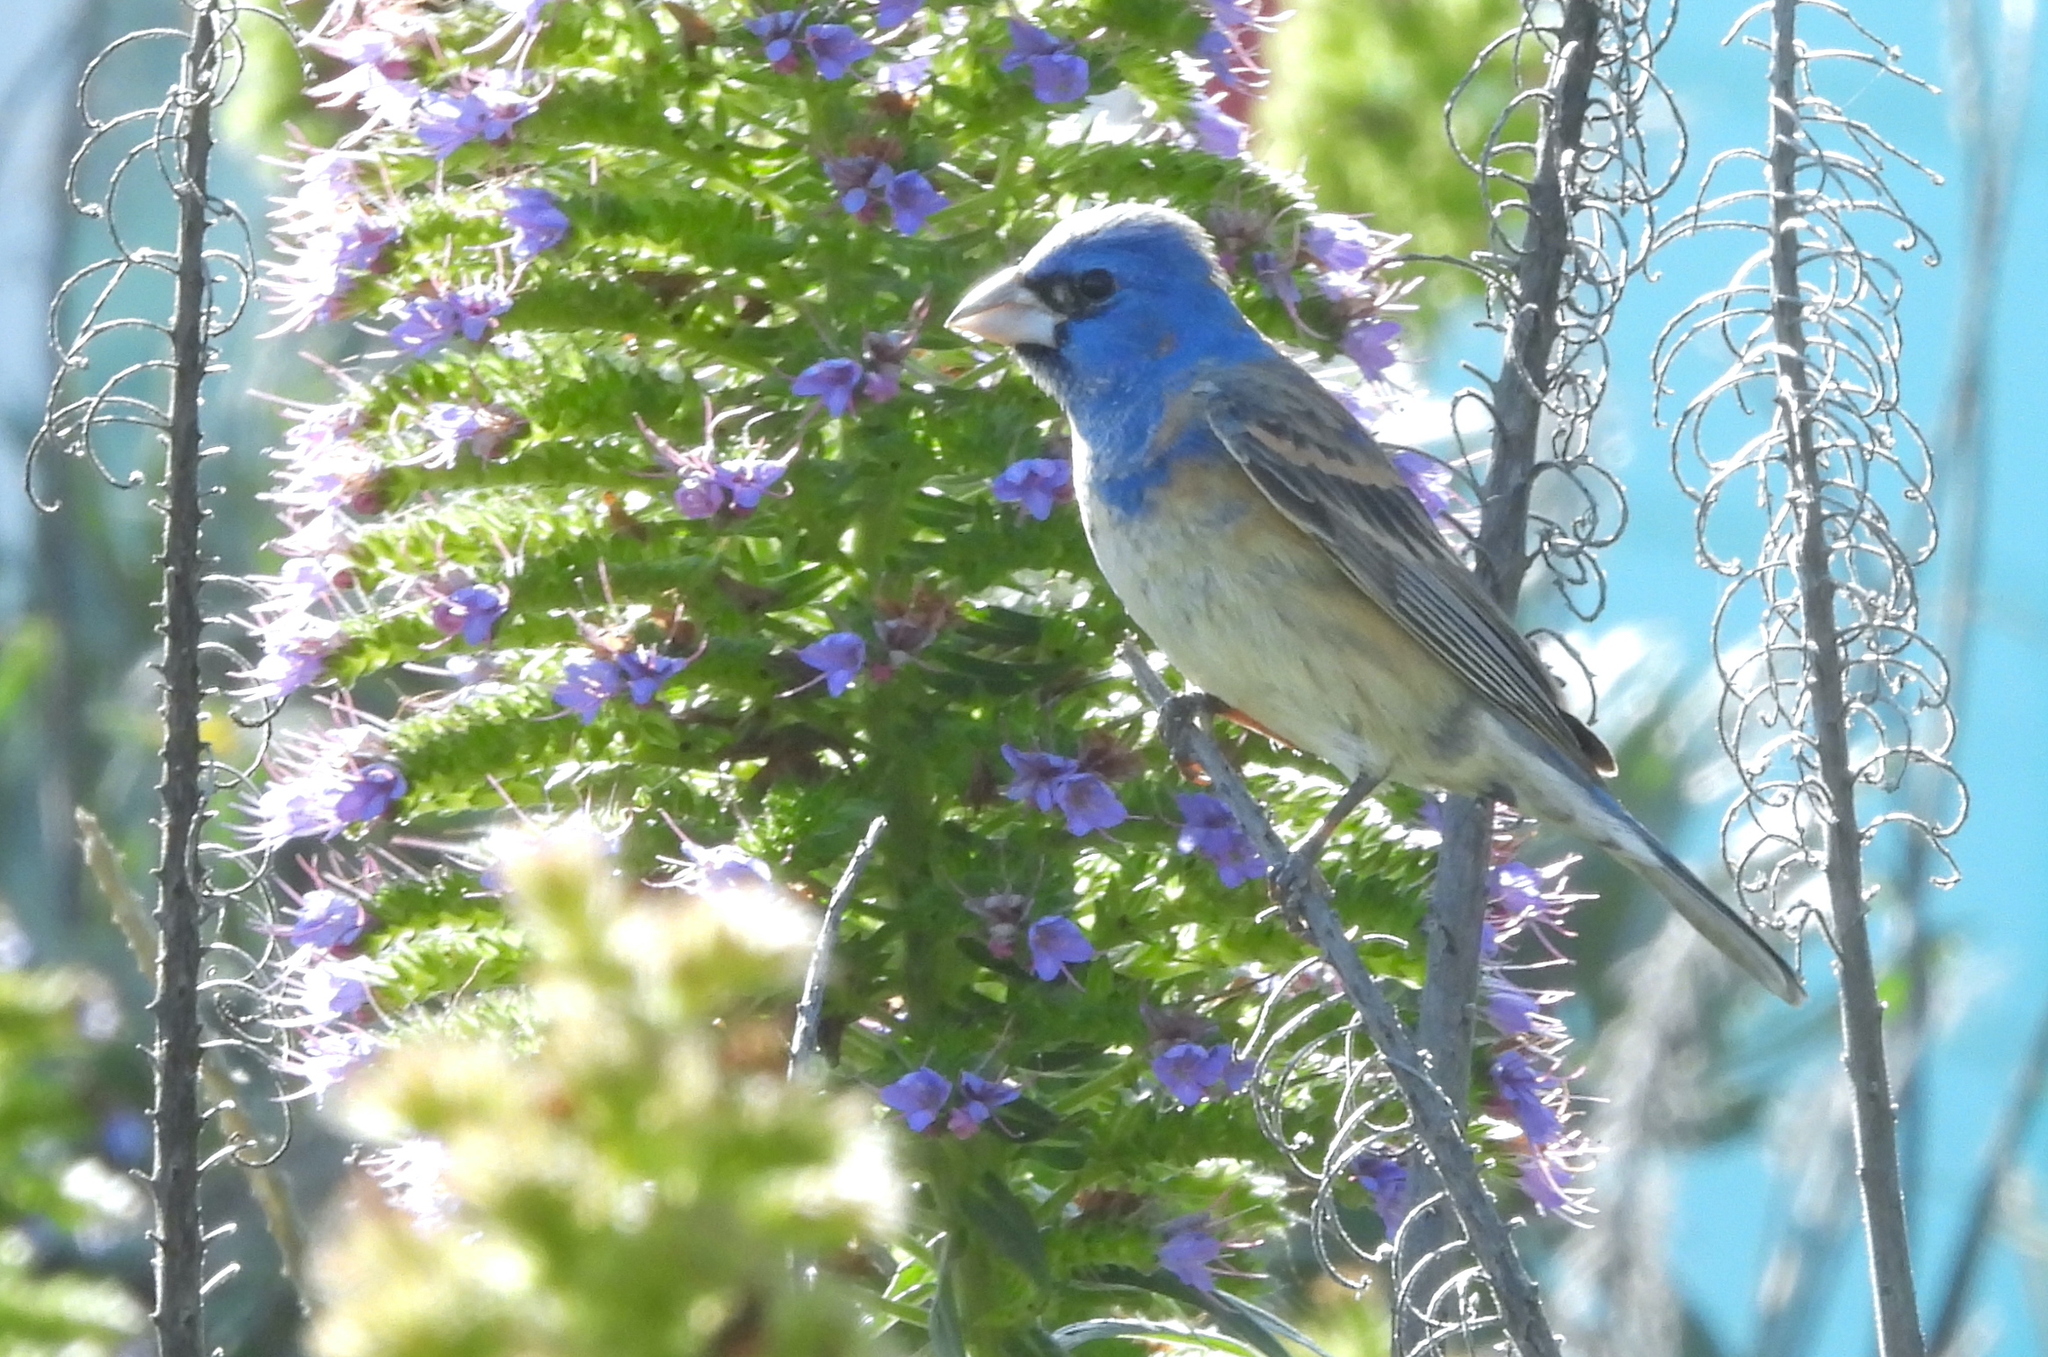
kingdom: Animalia
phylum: Chordata
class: Aves
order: Passeriformes
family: Cardinalidae
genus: Passerina
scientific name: Passerina caerulea
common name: Blue grosbeak
